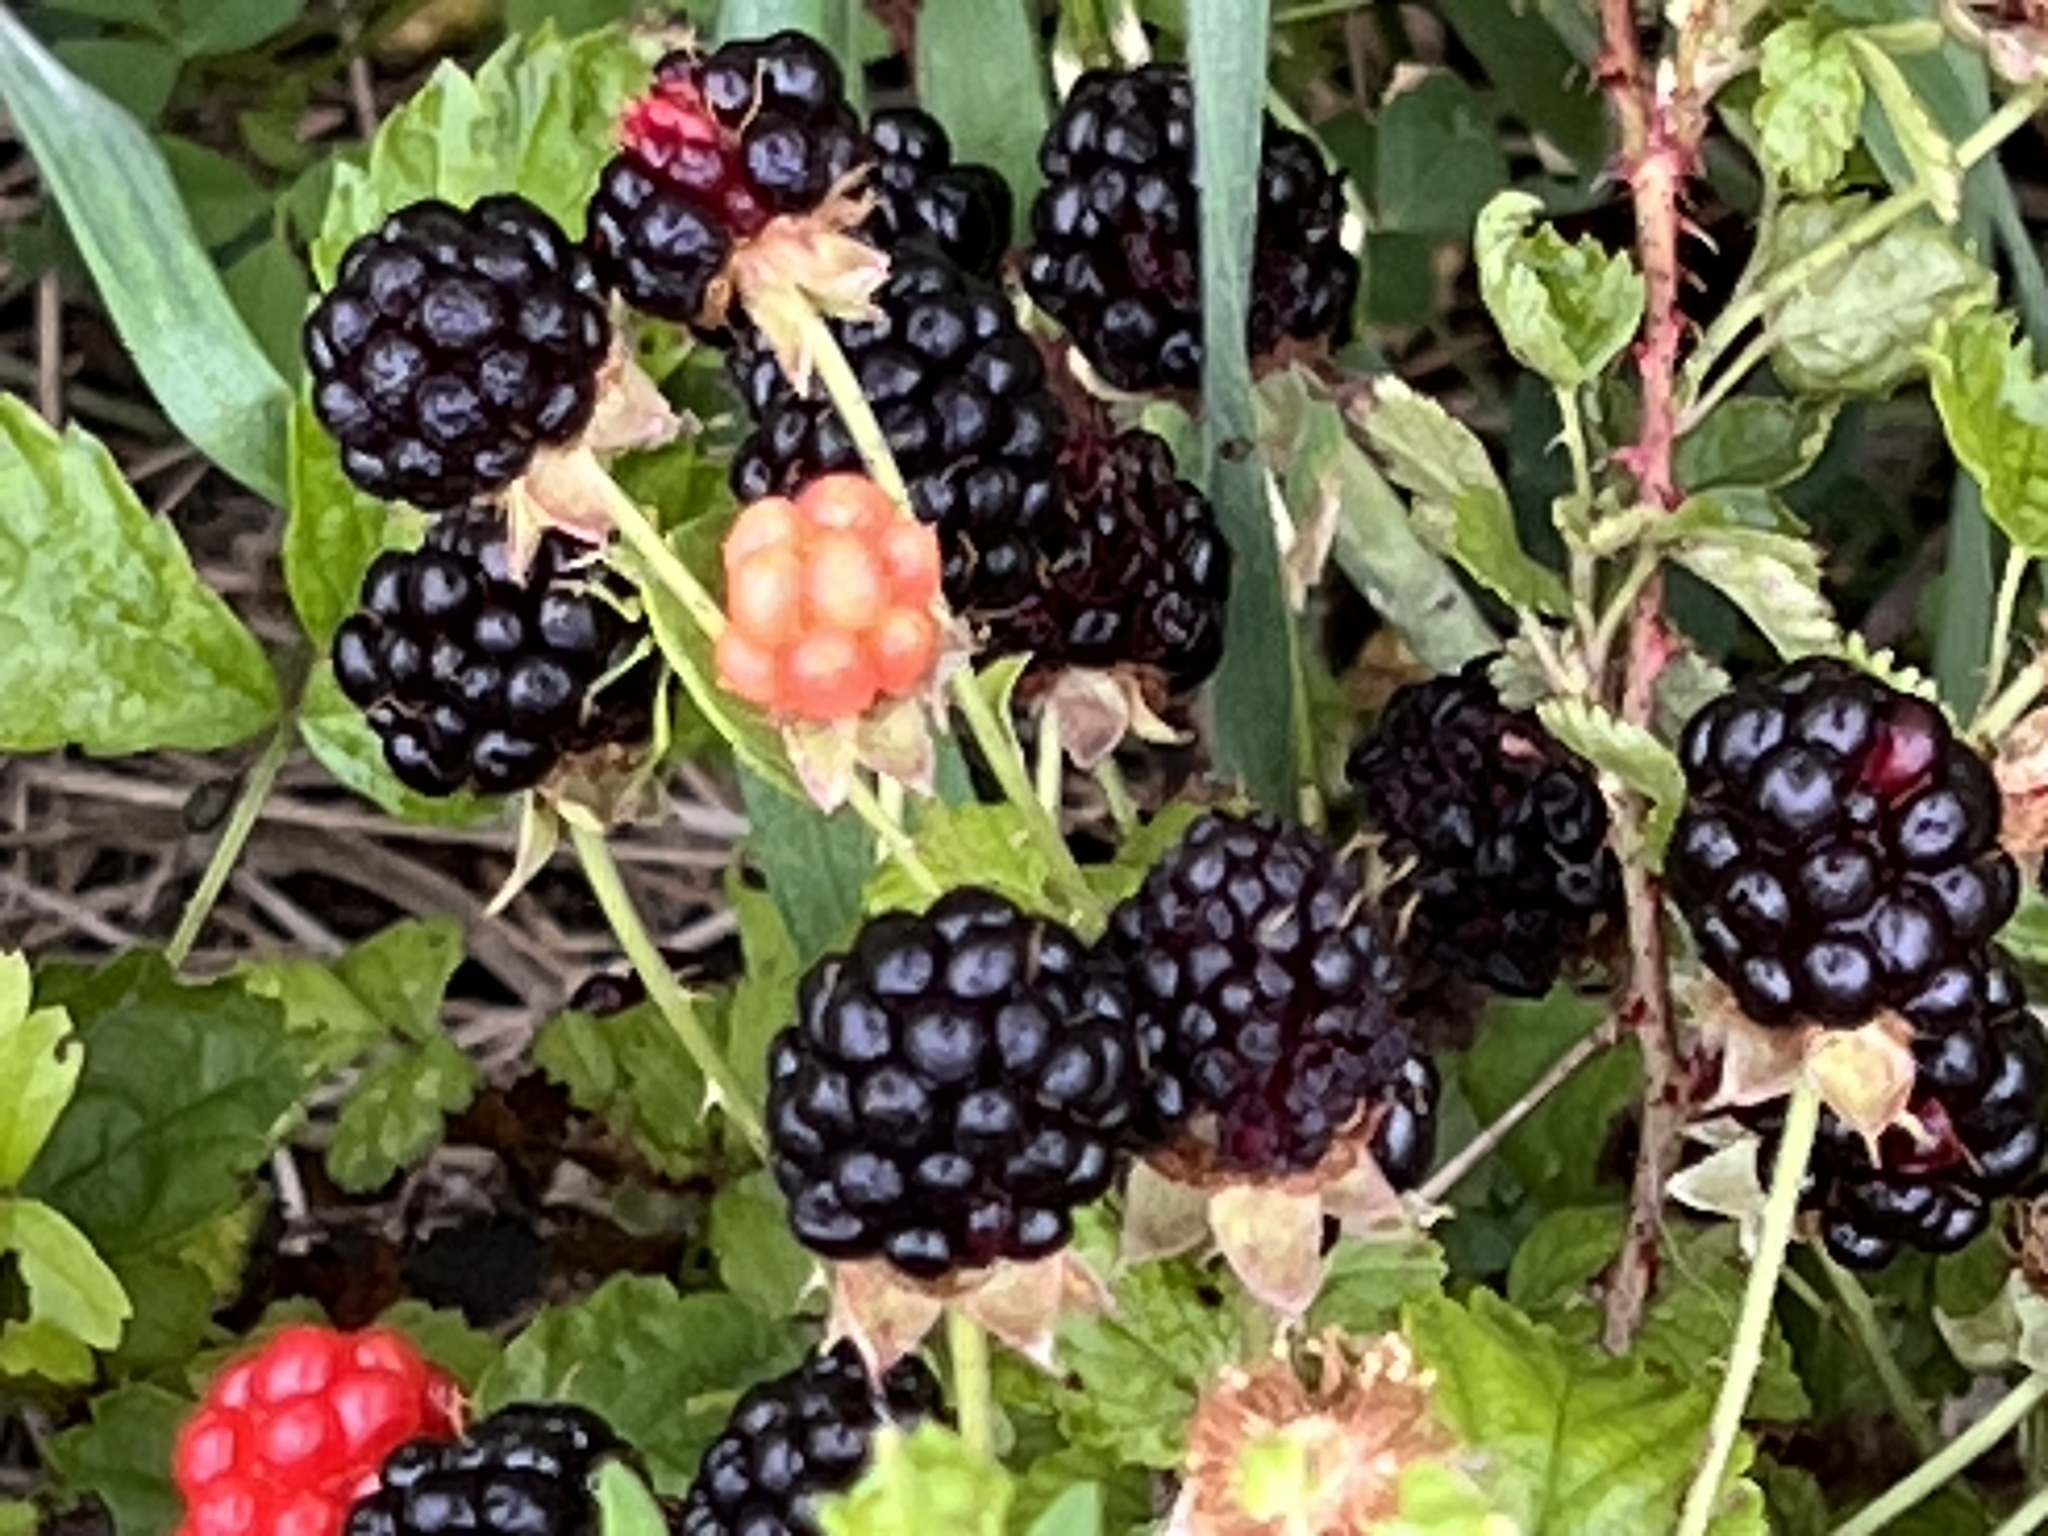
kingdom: Plantae
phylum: Tracheophyta
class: Magnoliopsida
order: Rosales
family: Rosaceae
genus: Rubus
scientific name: Rubus trivialis
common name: Southern dewberry
